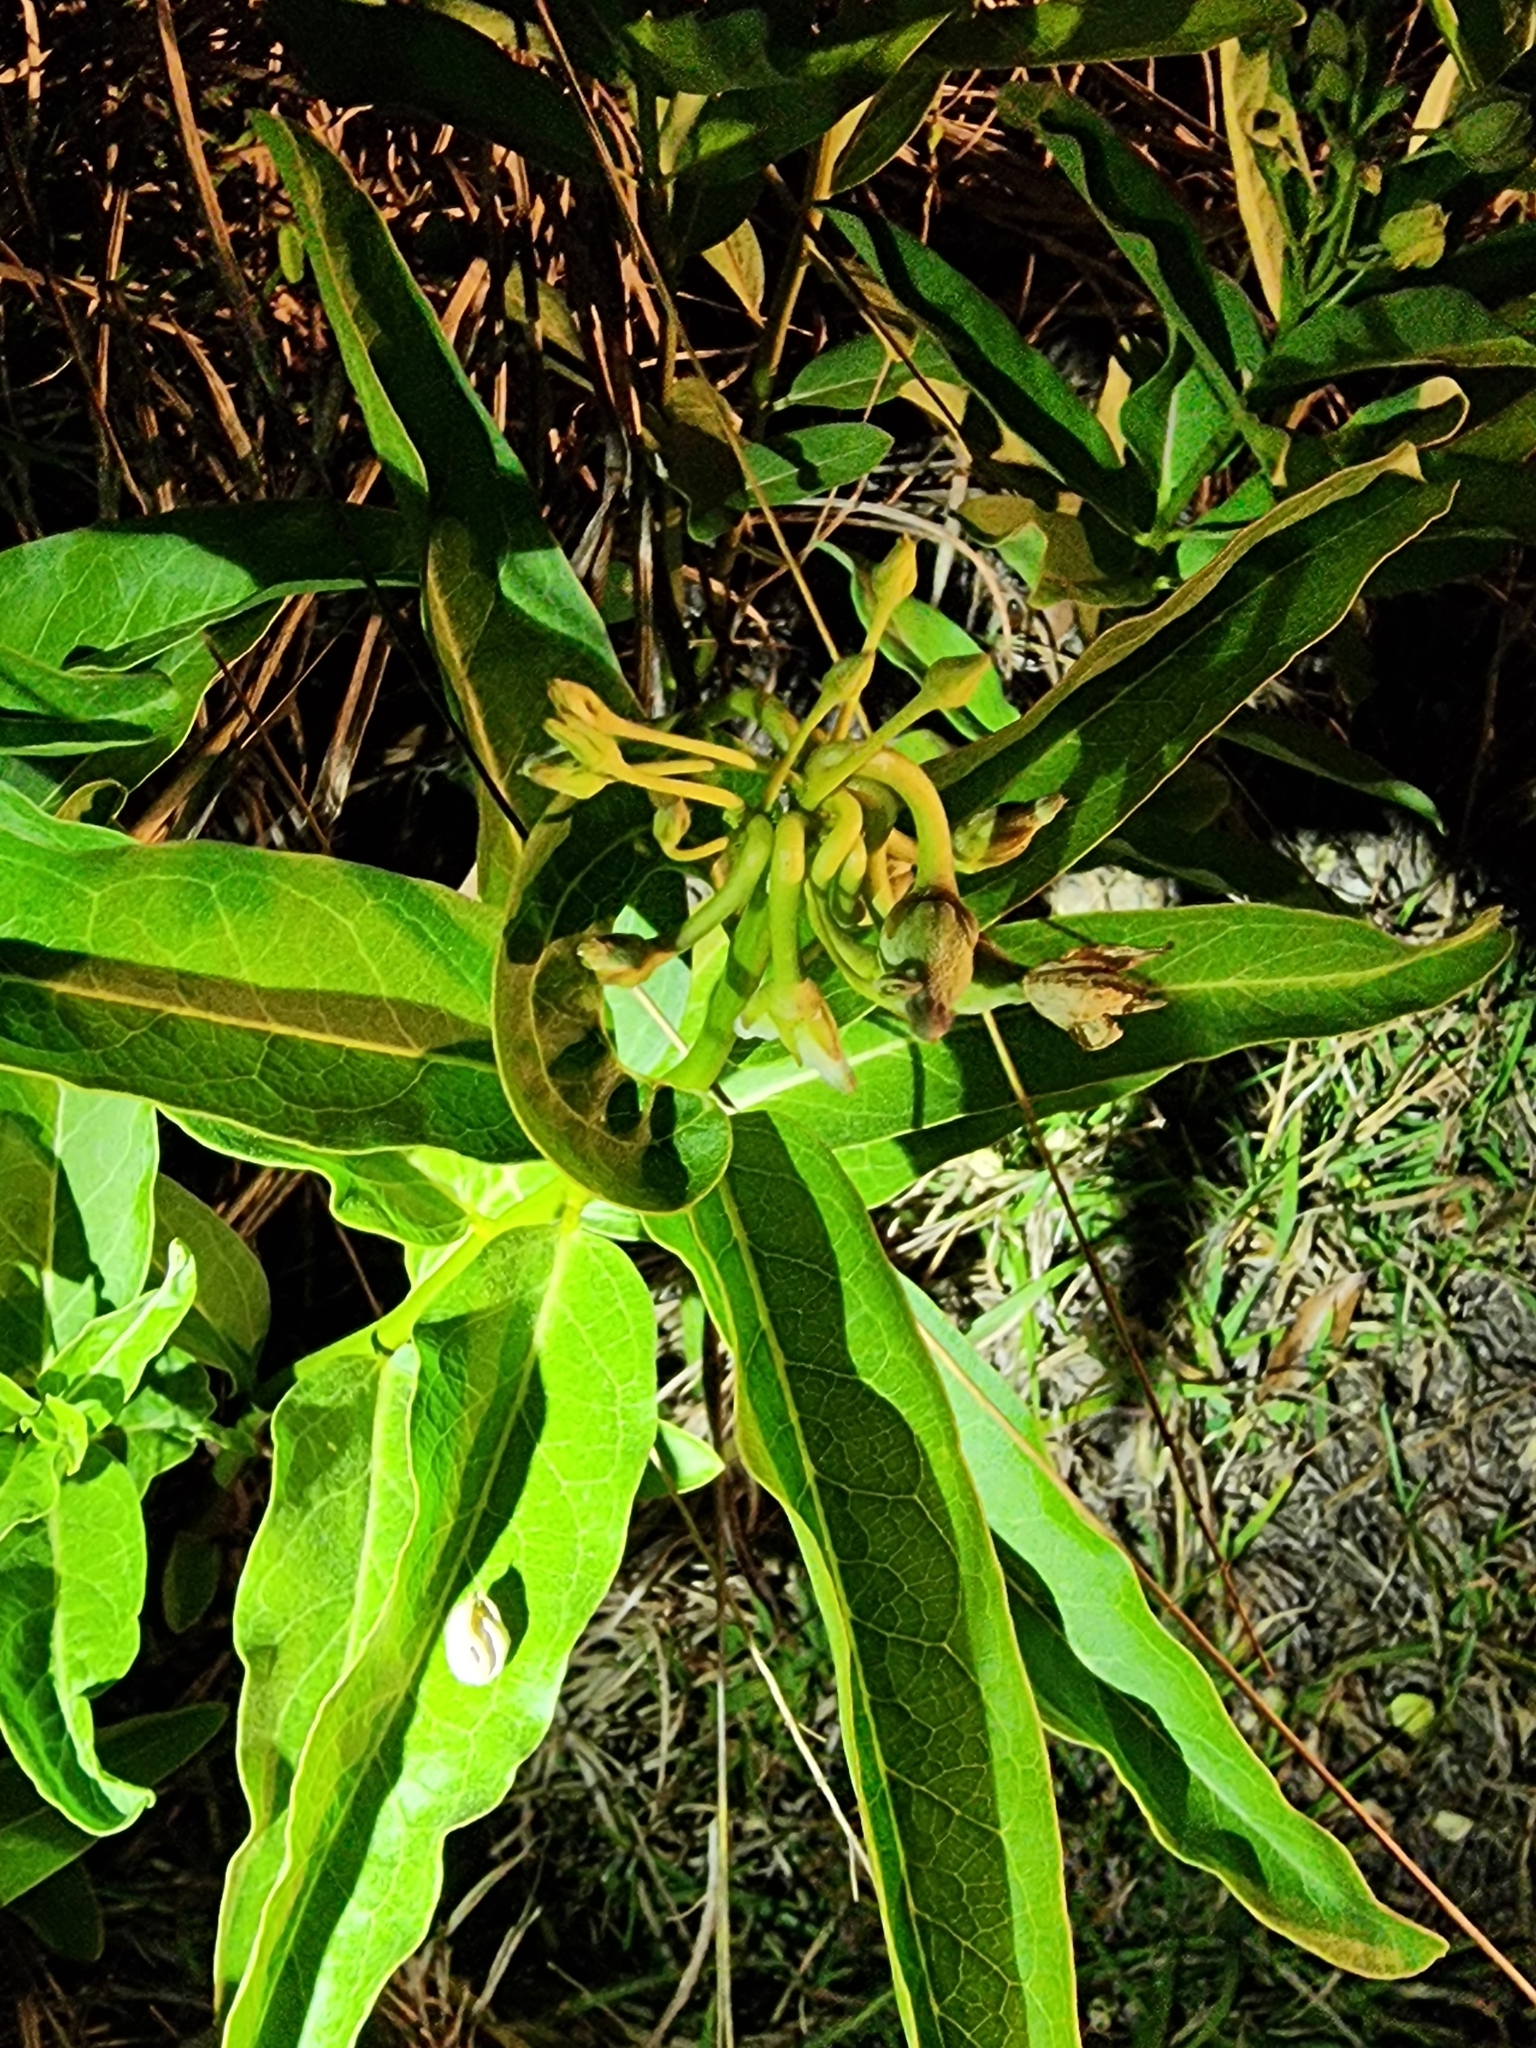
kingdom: Plantae
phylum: Tracheophyta
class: Magnoliopsida
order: Gentianales
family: Apocynaceae
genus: Asclepias
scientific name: Asclepias viridis
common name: Antelope-horns
